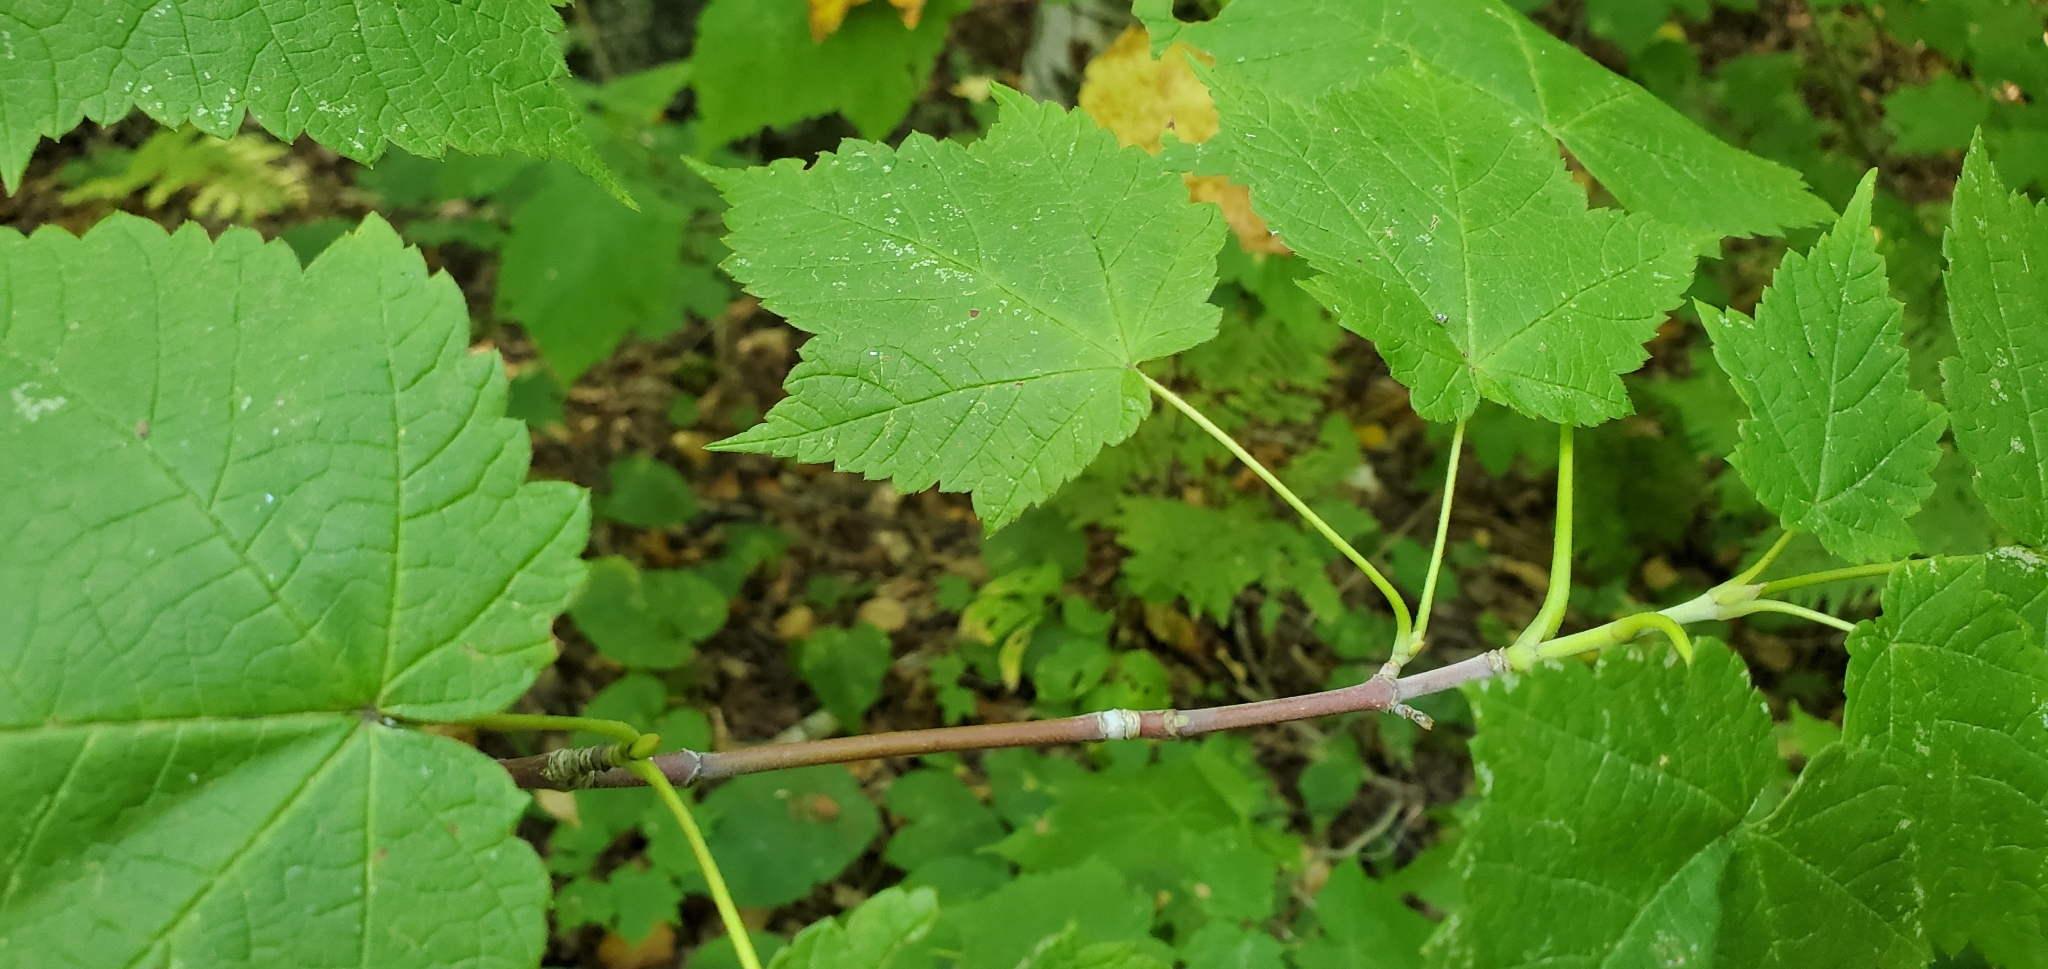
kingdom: Plantae
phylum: Tracheophyta
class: Magnoliopsida
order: Sapindales
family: Sapindaceae
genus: Acer
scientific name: Acer spicatum
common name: Mountain maple
